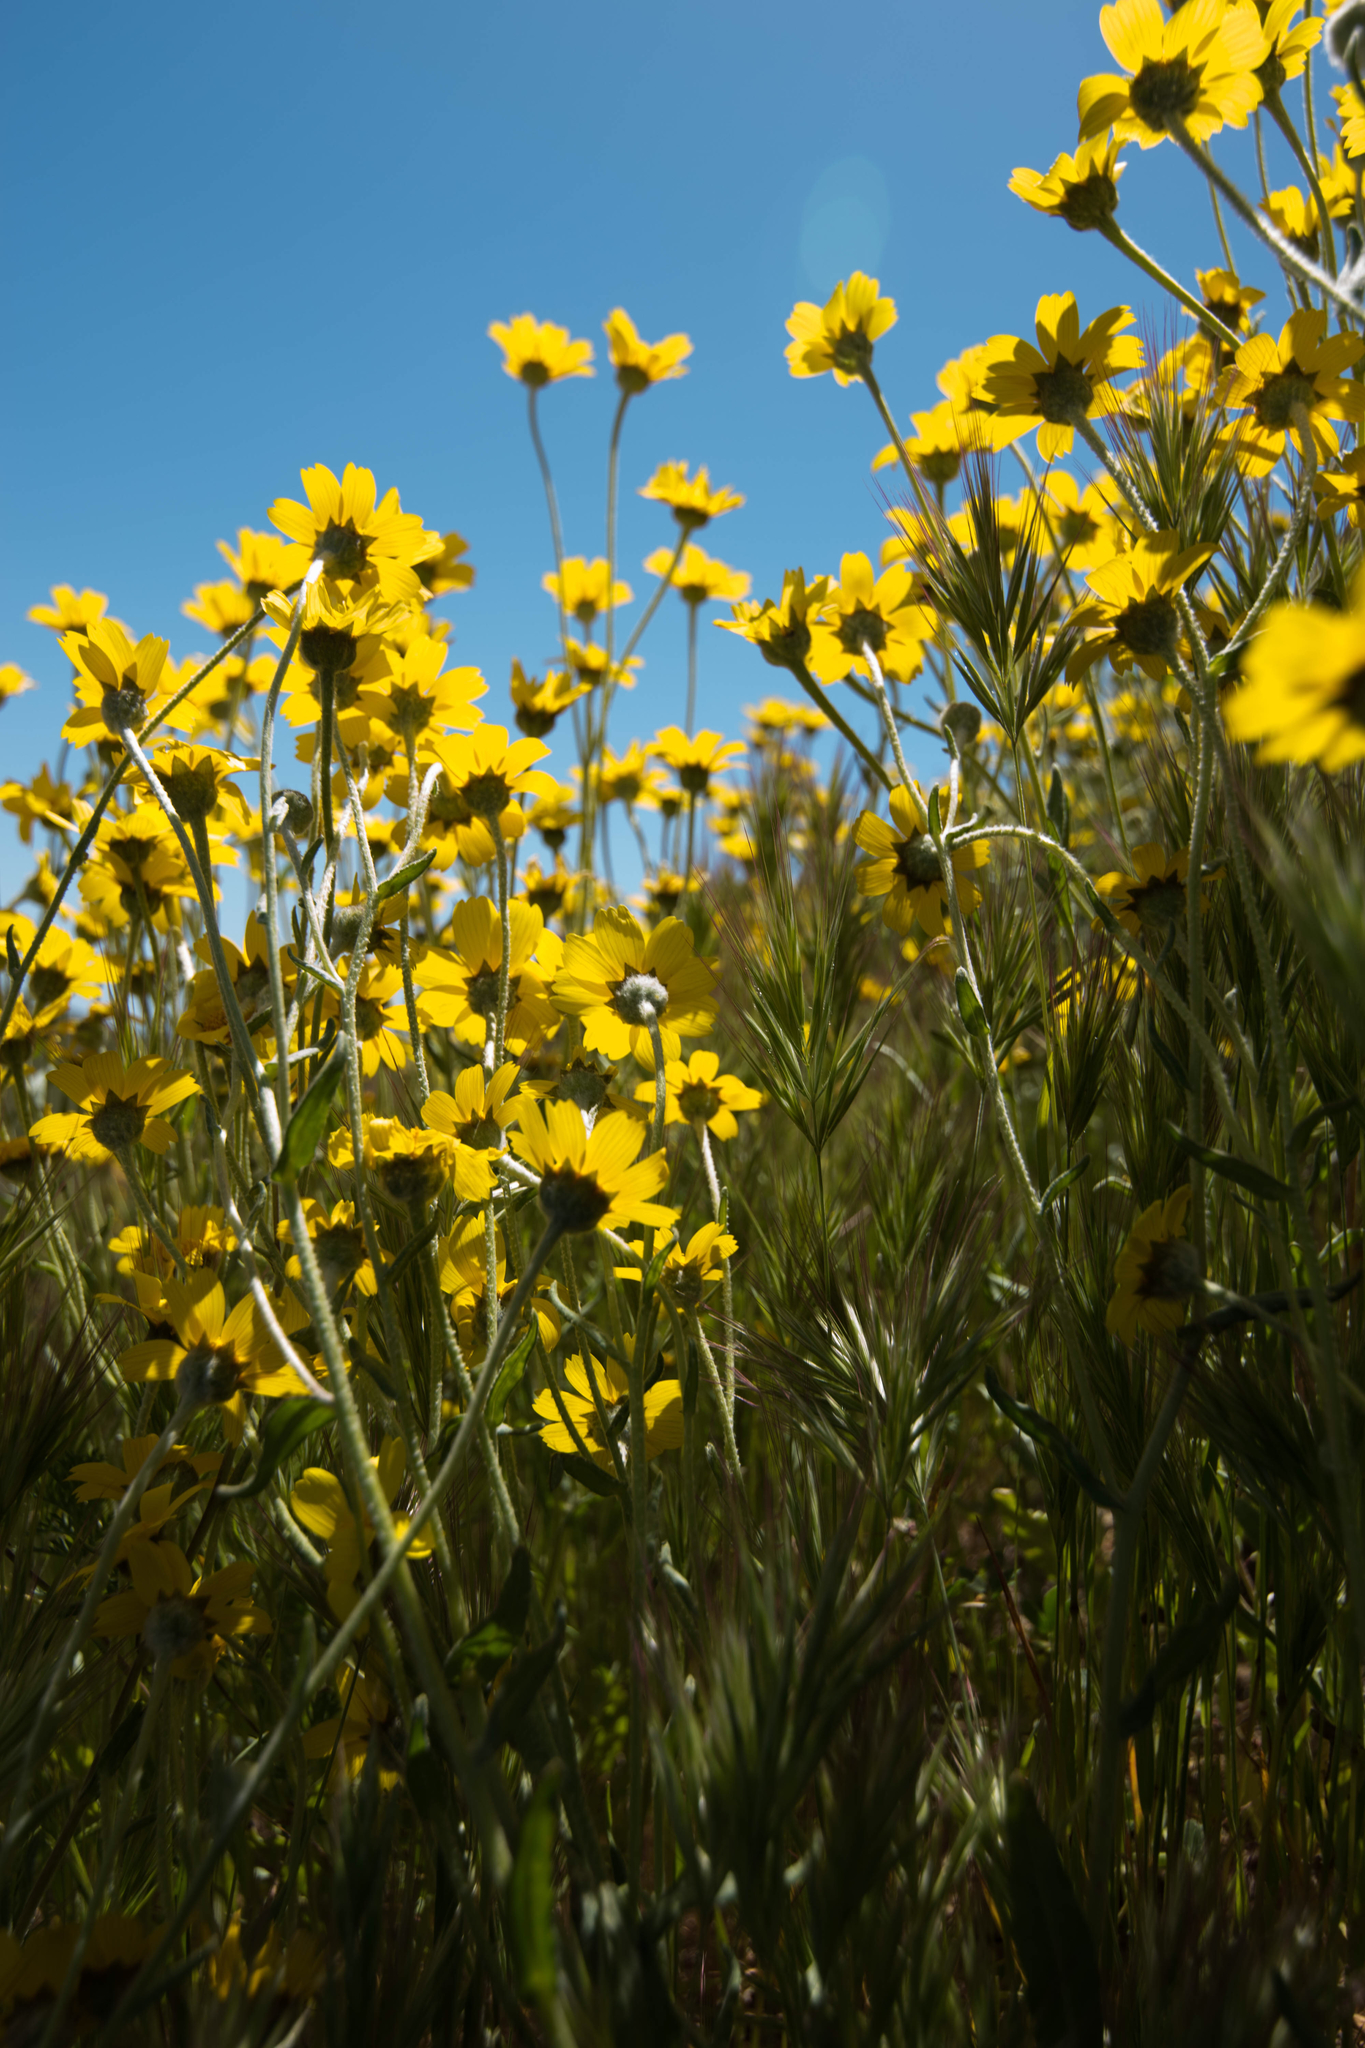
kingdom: Plantae
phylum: Tracheophyta
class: Magnoliopsida
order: Asterales
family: Asteraceae
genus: Monolopia
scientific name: Monolopia lanceolata
